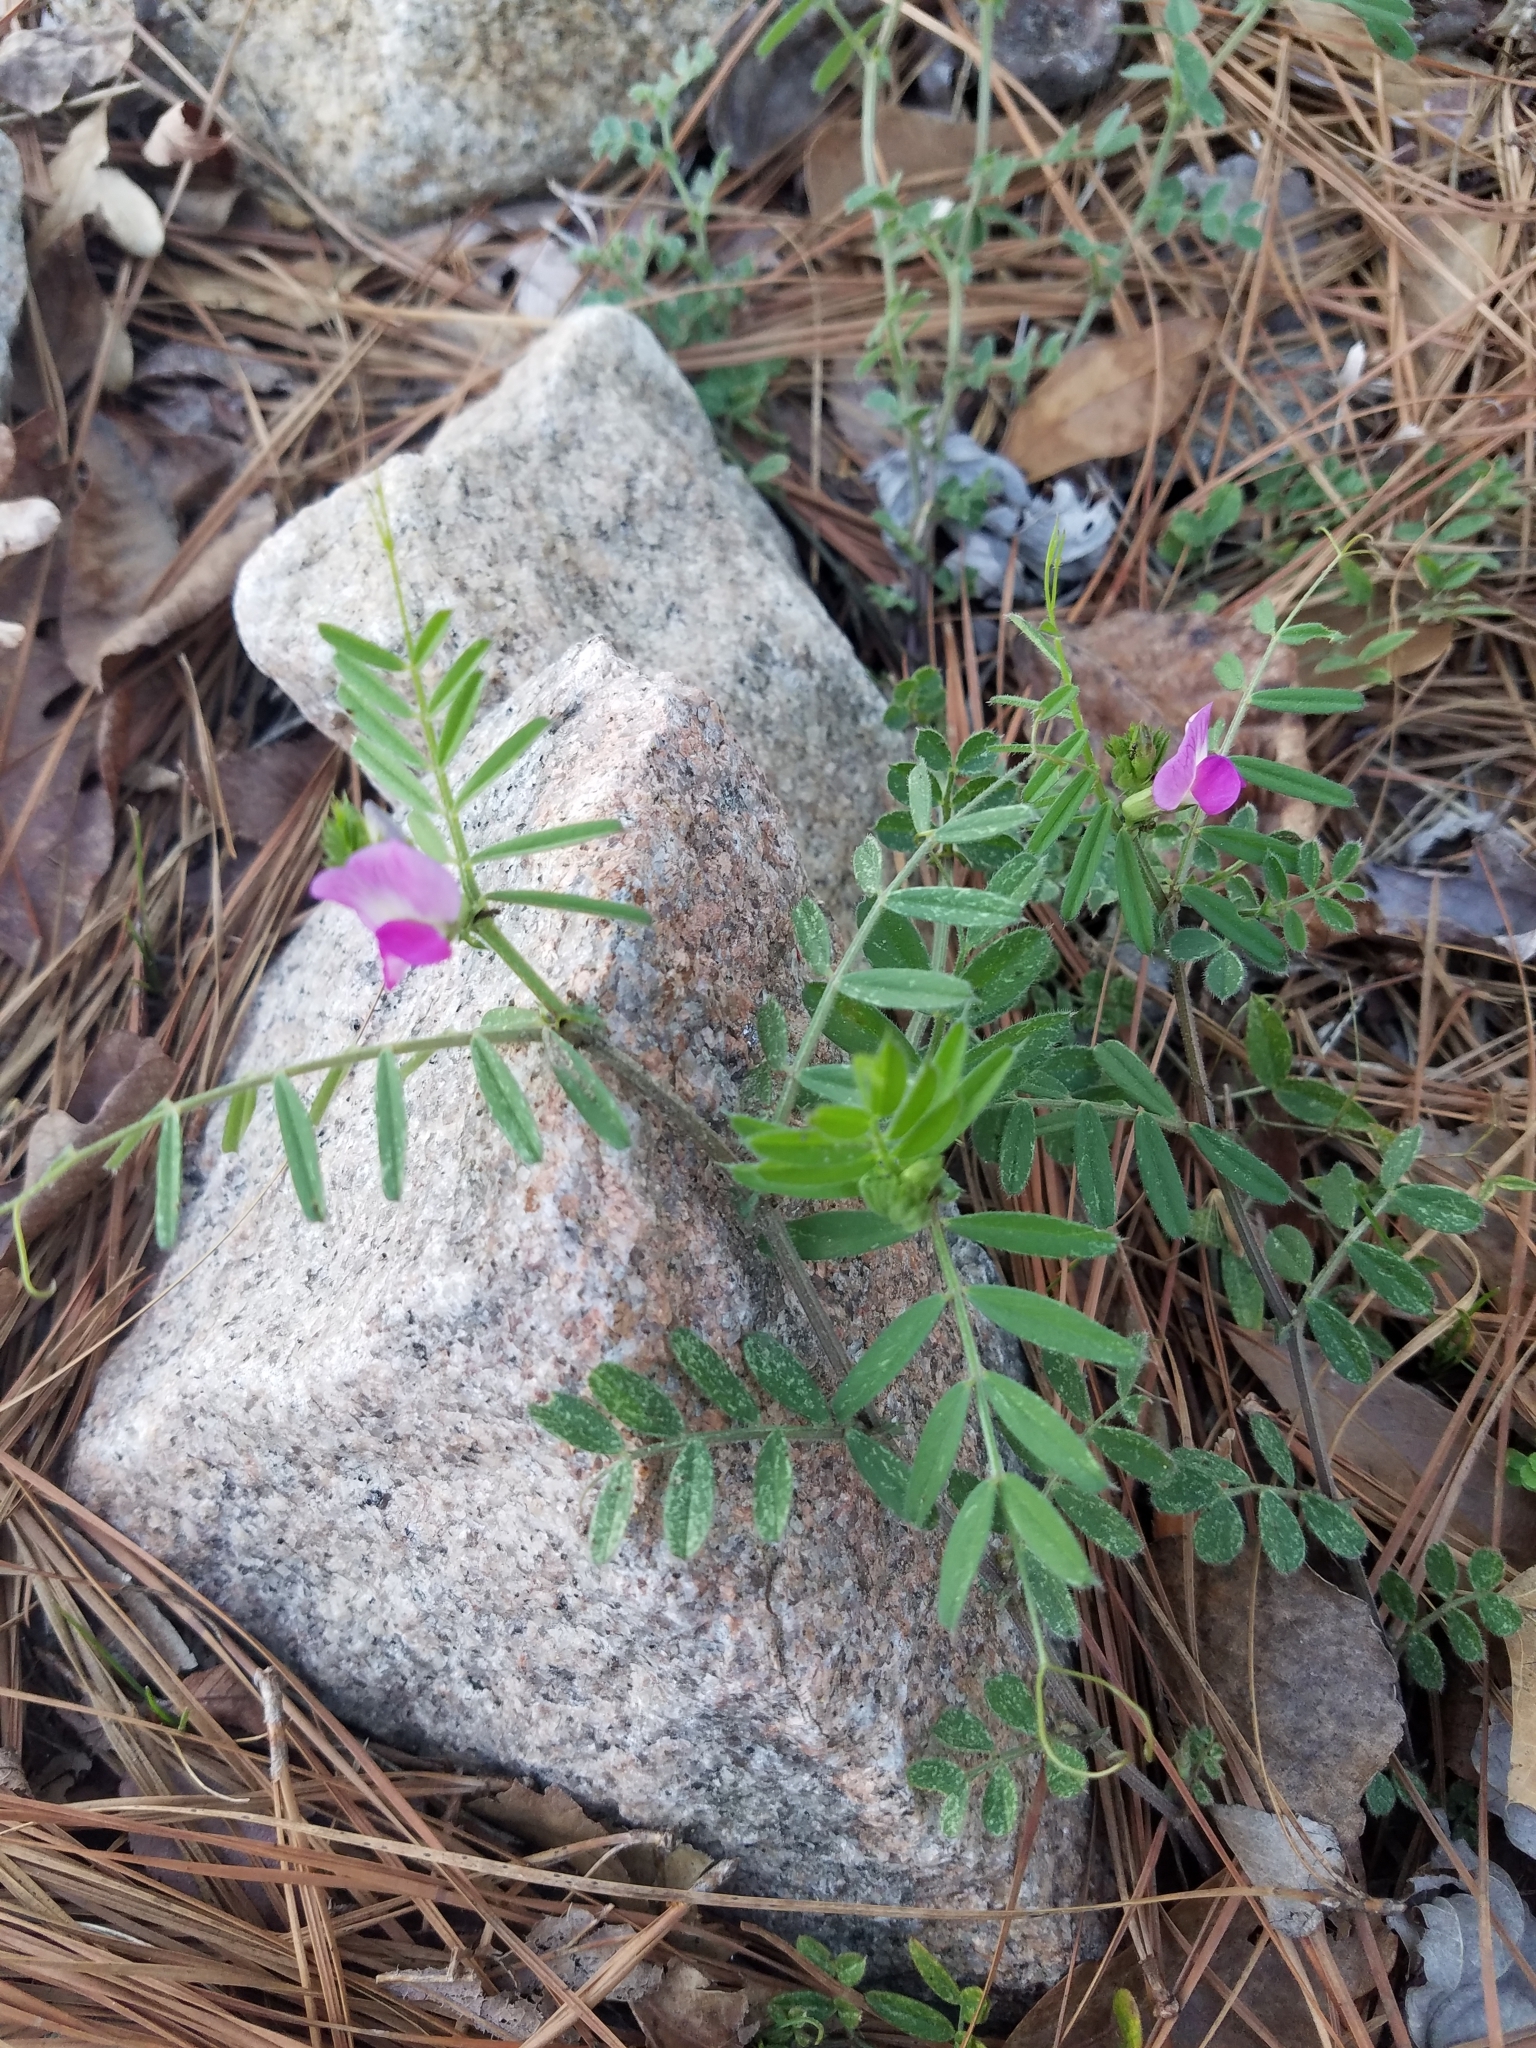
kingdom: Plantae
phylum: Tracheophyta
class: Magnoliopsida
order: Fabales
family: Fabaceae
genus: Vicia
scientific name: Vicia sativa
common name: Garden vetch
